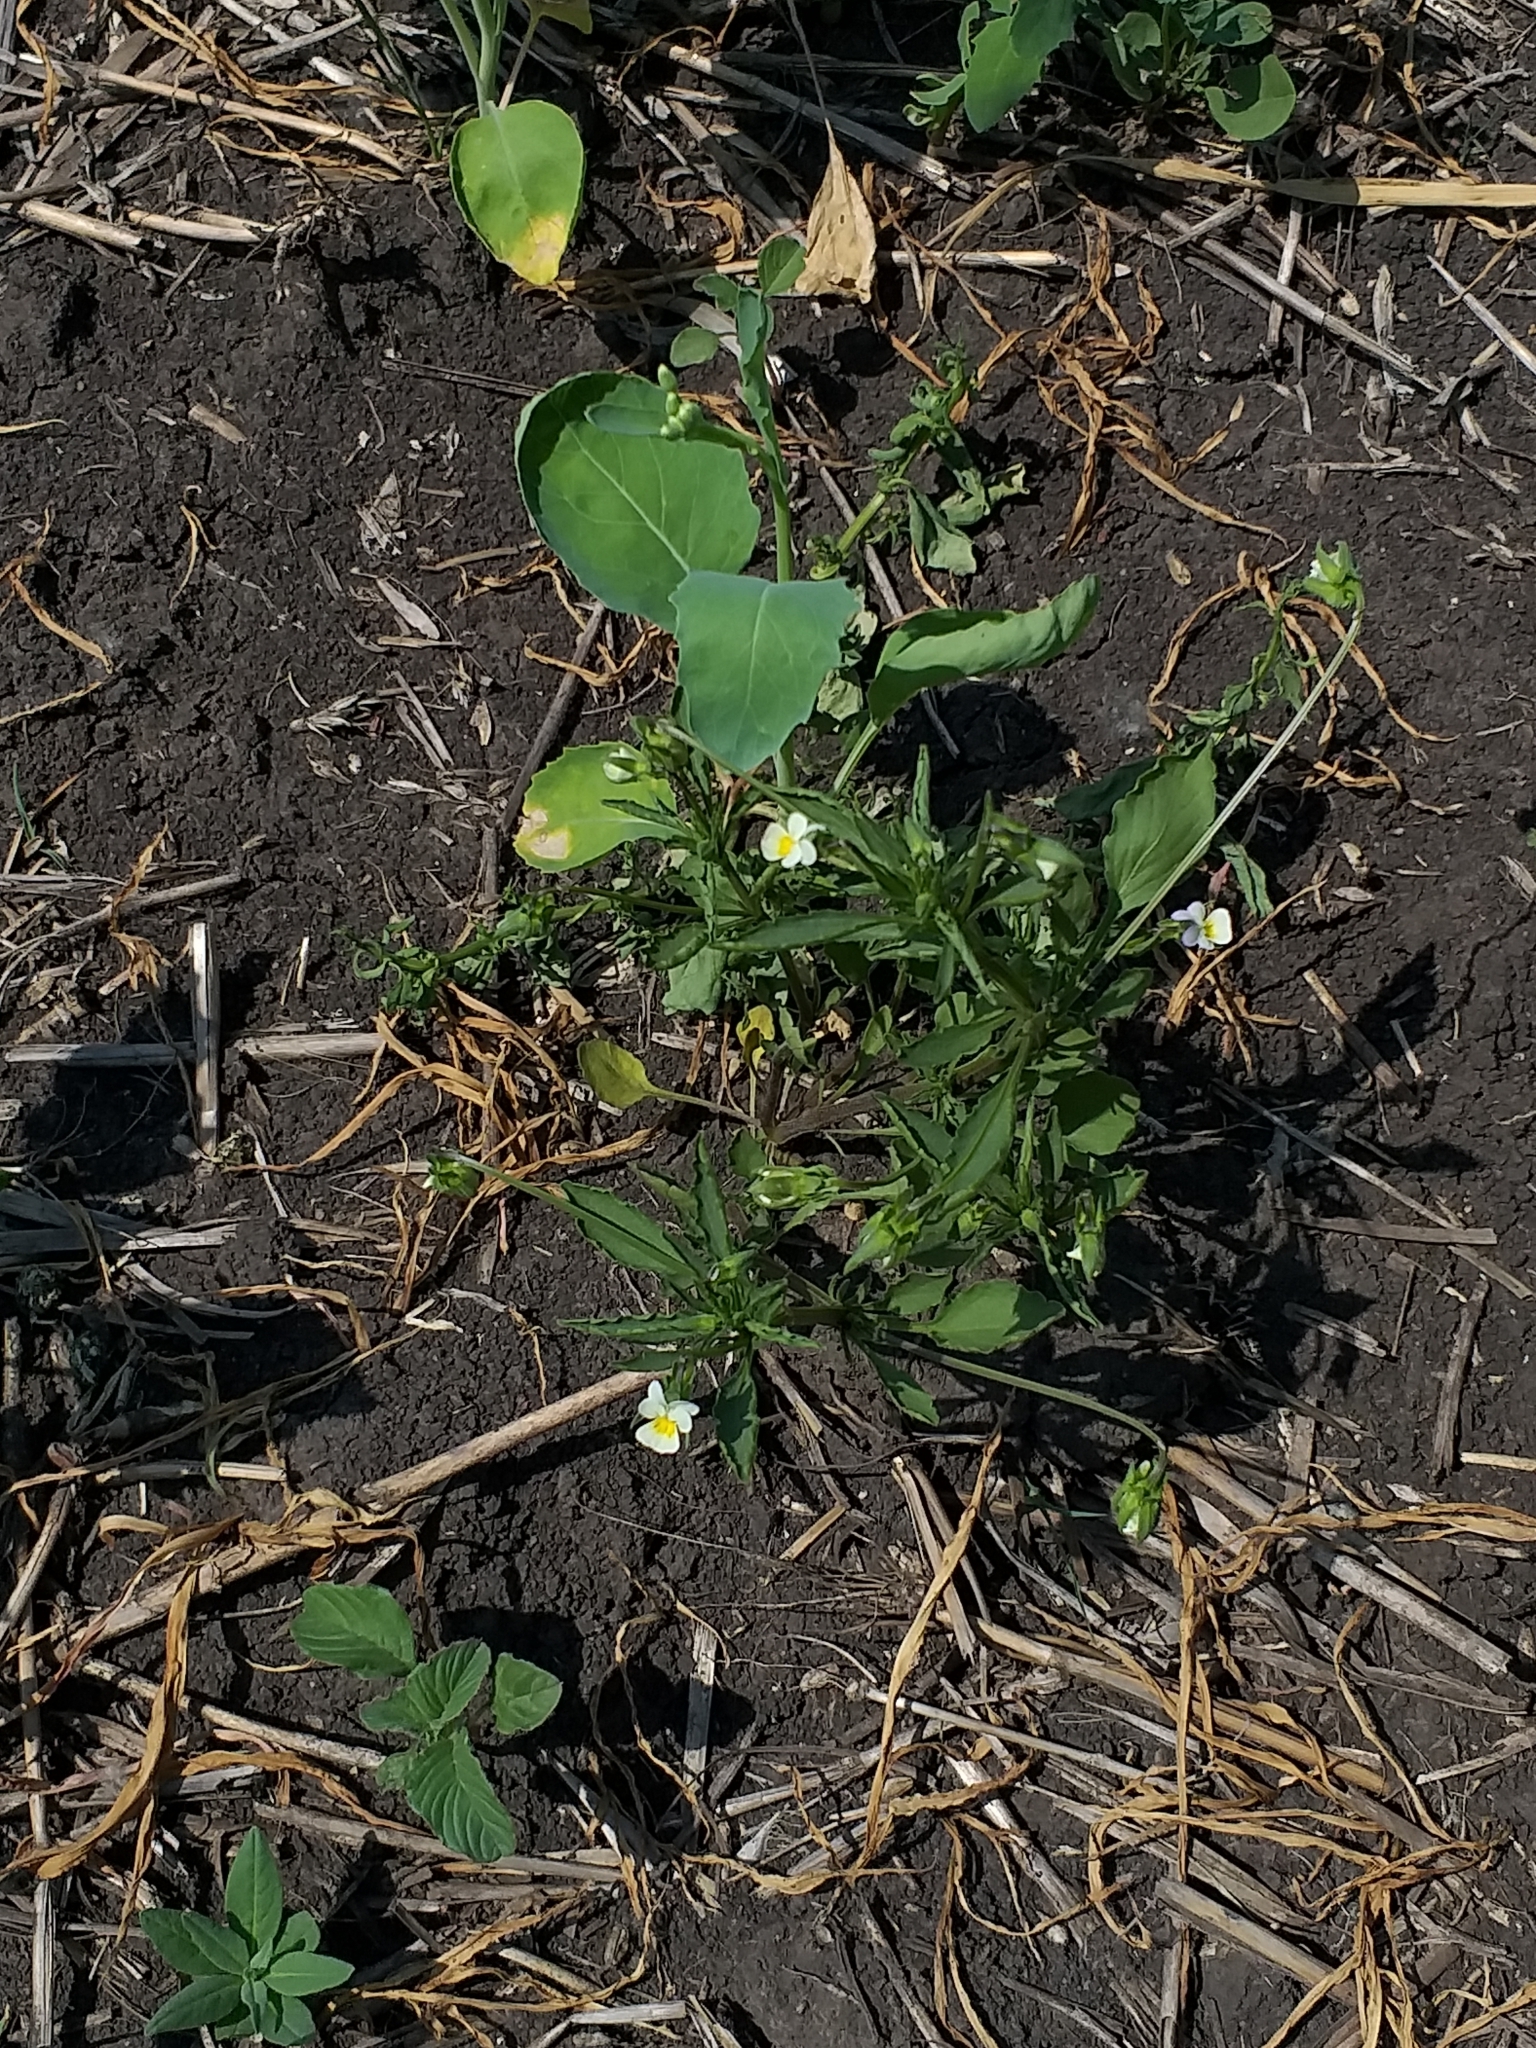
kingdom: Plantae
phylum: Tracheophyta
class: Magnoliopsida
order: Malpighiales
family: Violaceae
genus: Viola
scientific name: Viola arvensis
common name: Field pansy
